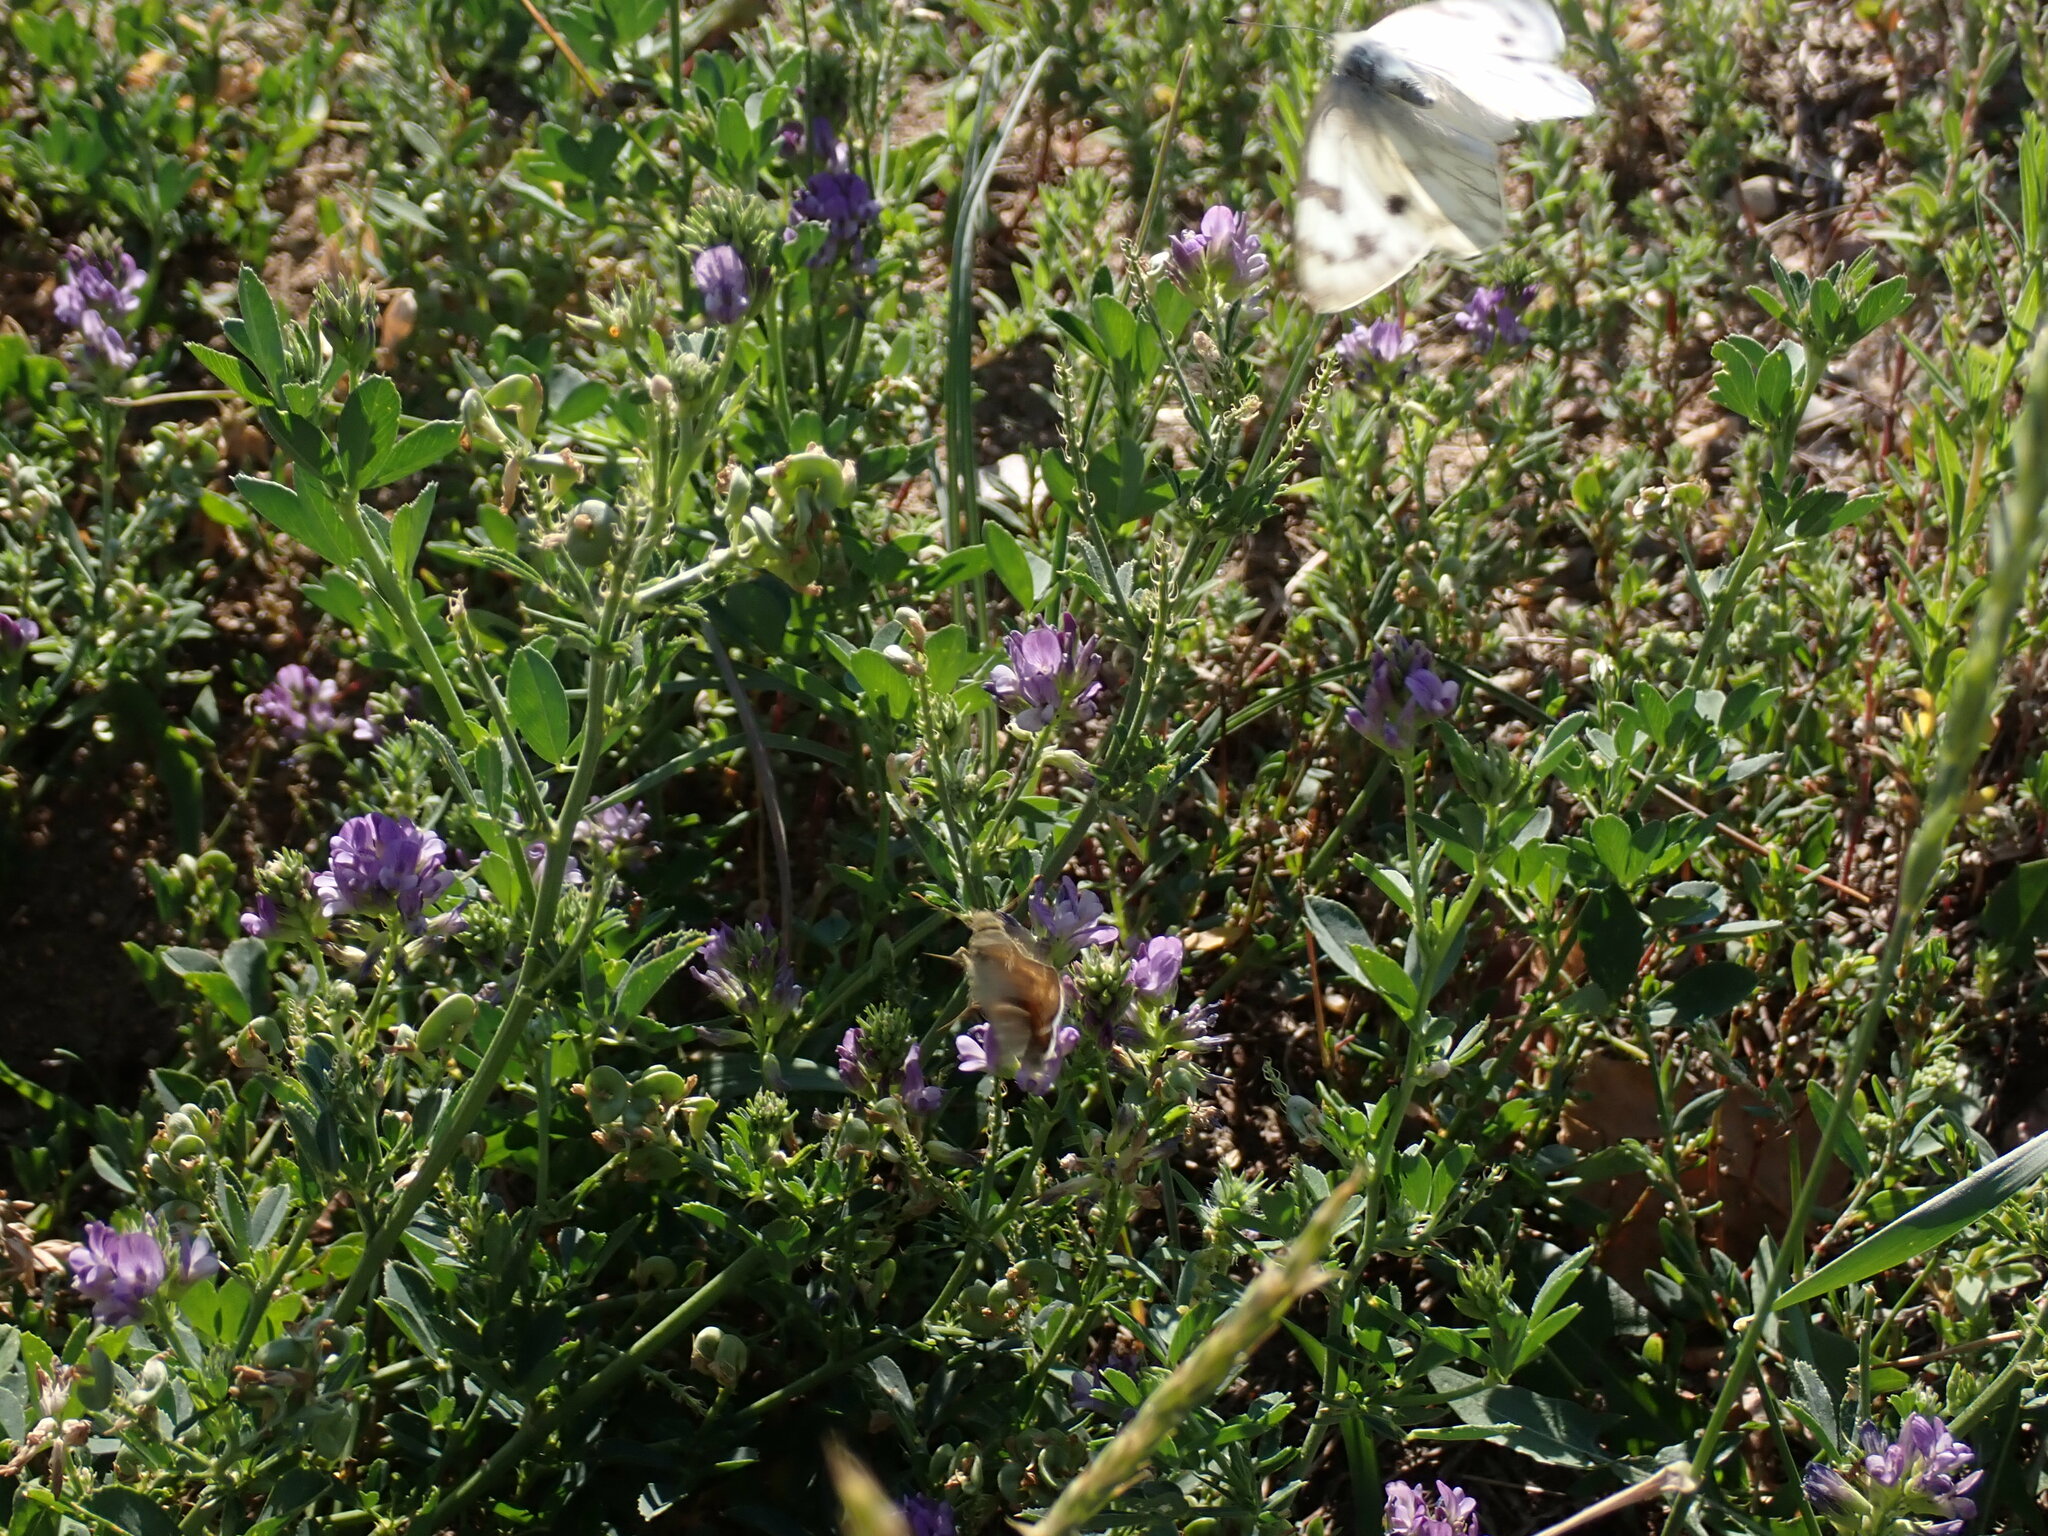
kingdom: Animalia
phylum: Arthropoda
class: Insecta
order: Lepidoptera
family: Pieridae
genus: Pontia
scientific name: Pontia occidentalis
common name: Western white
